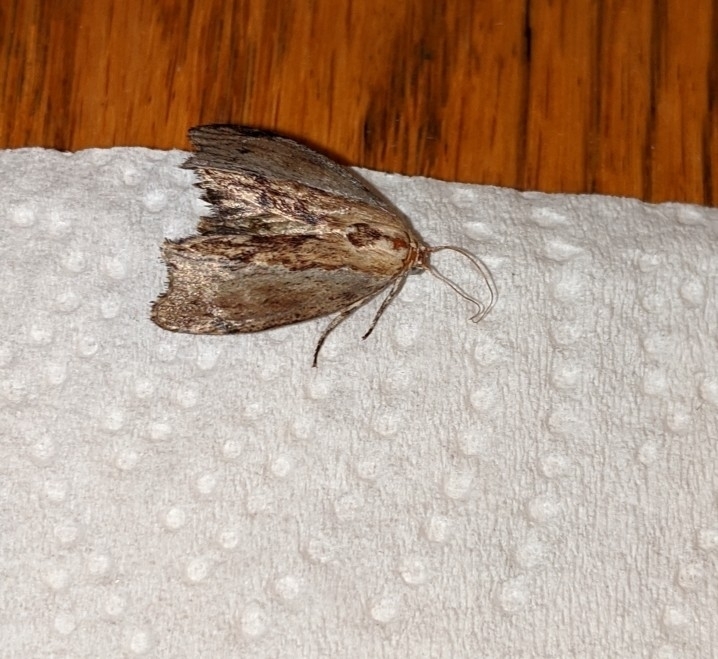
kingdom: Animalia
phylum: Arthropoda
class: Insecta
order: Lepidoptera
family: Pyralidae
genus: Galleria
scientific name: Galleria mellonella
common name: Greater wax moth
